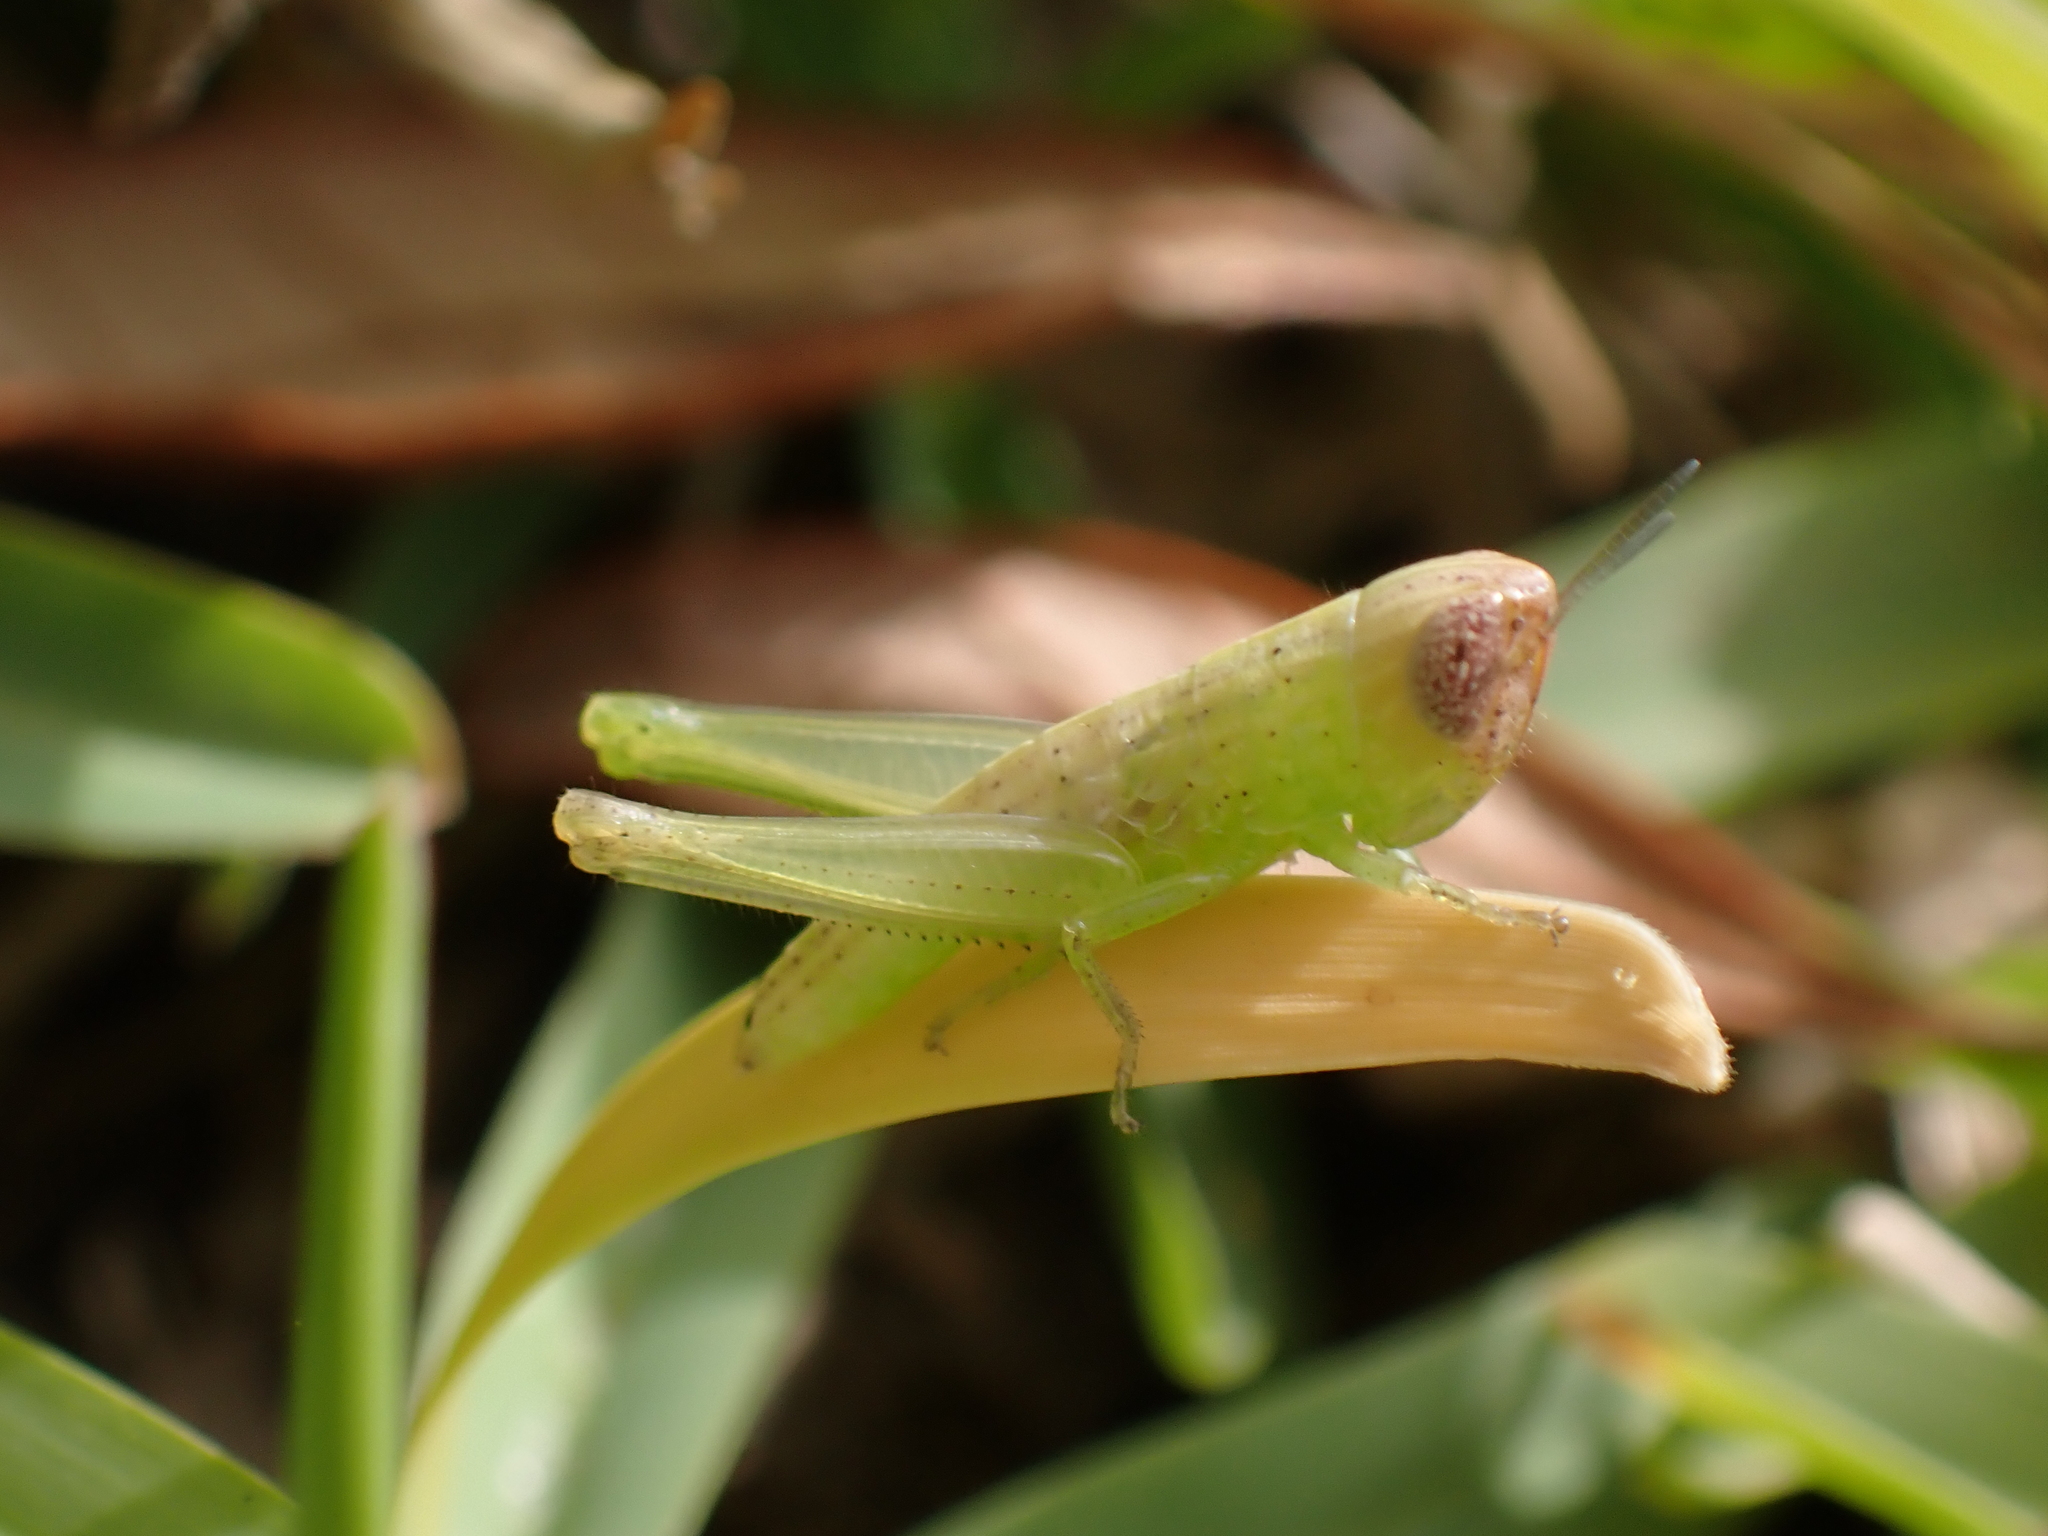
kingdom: Animalia
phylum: Arthropoda
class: Insecta
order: Orthoptera
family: Acrididae
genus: Amblytropidia
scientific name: Amblytropidia mysteca
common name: Brown winter grasshopper
